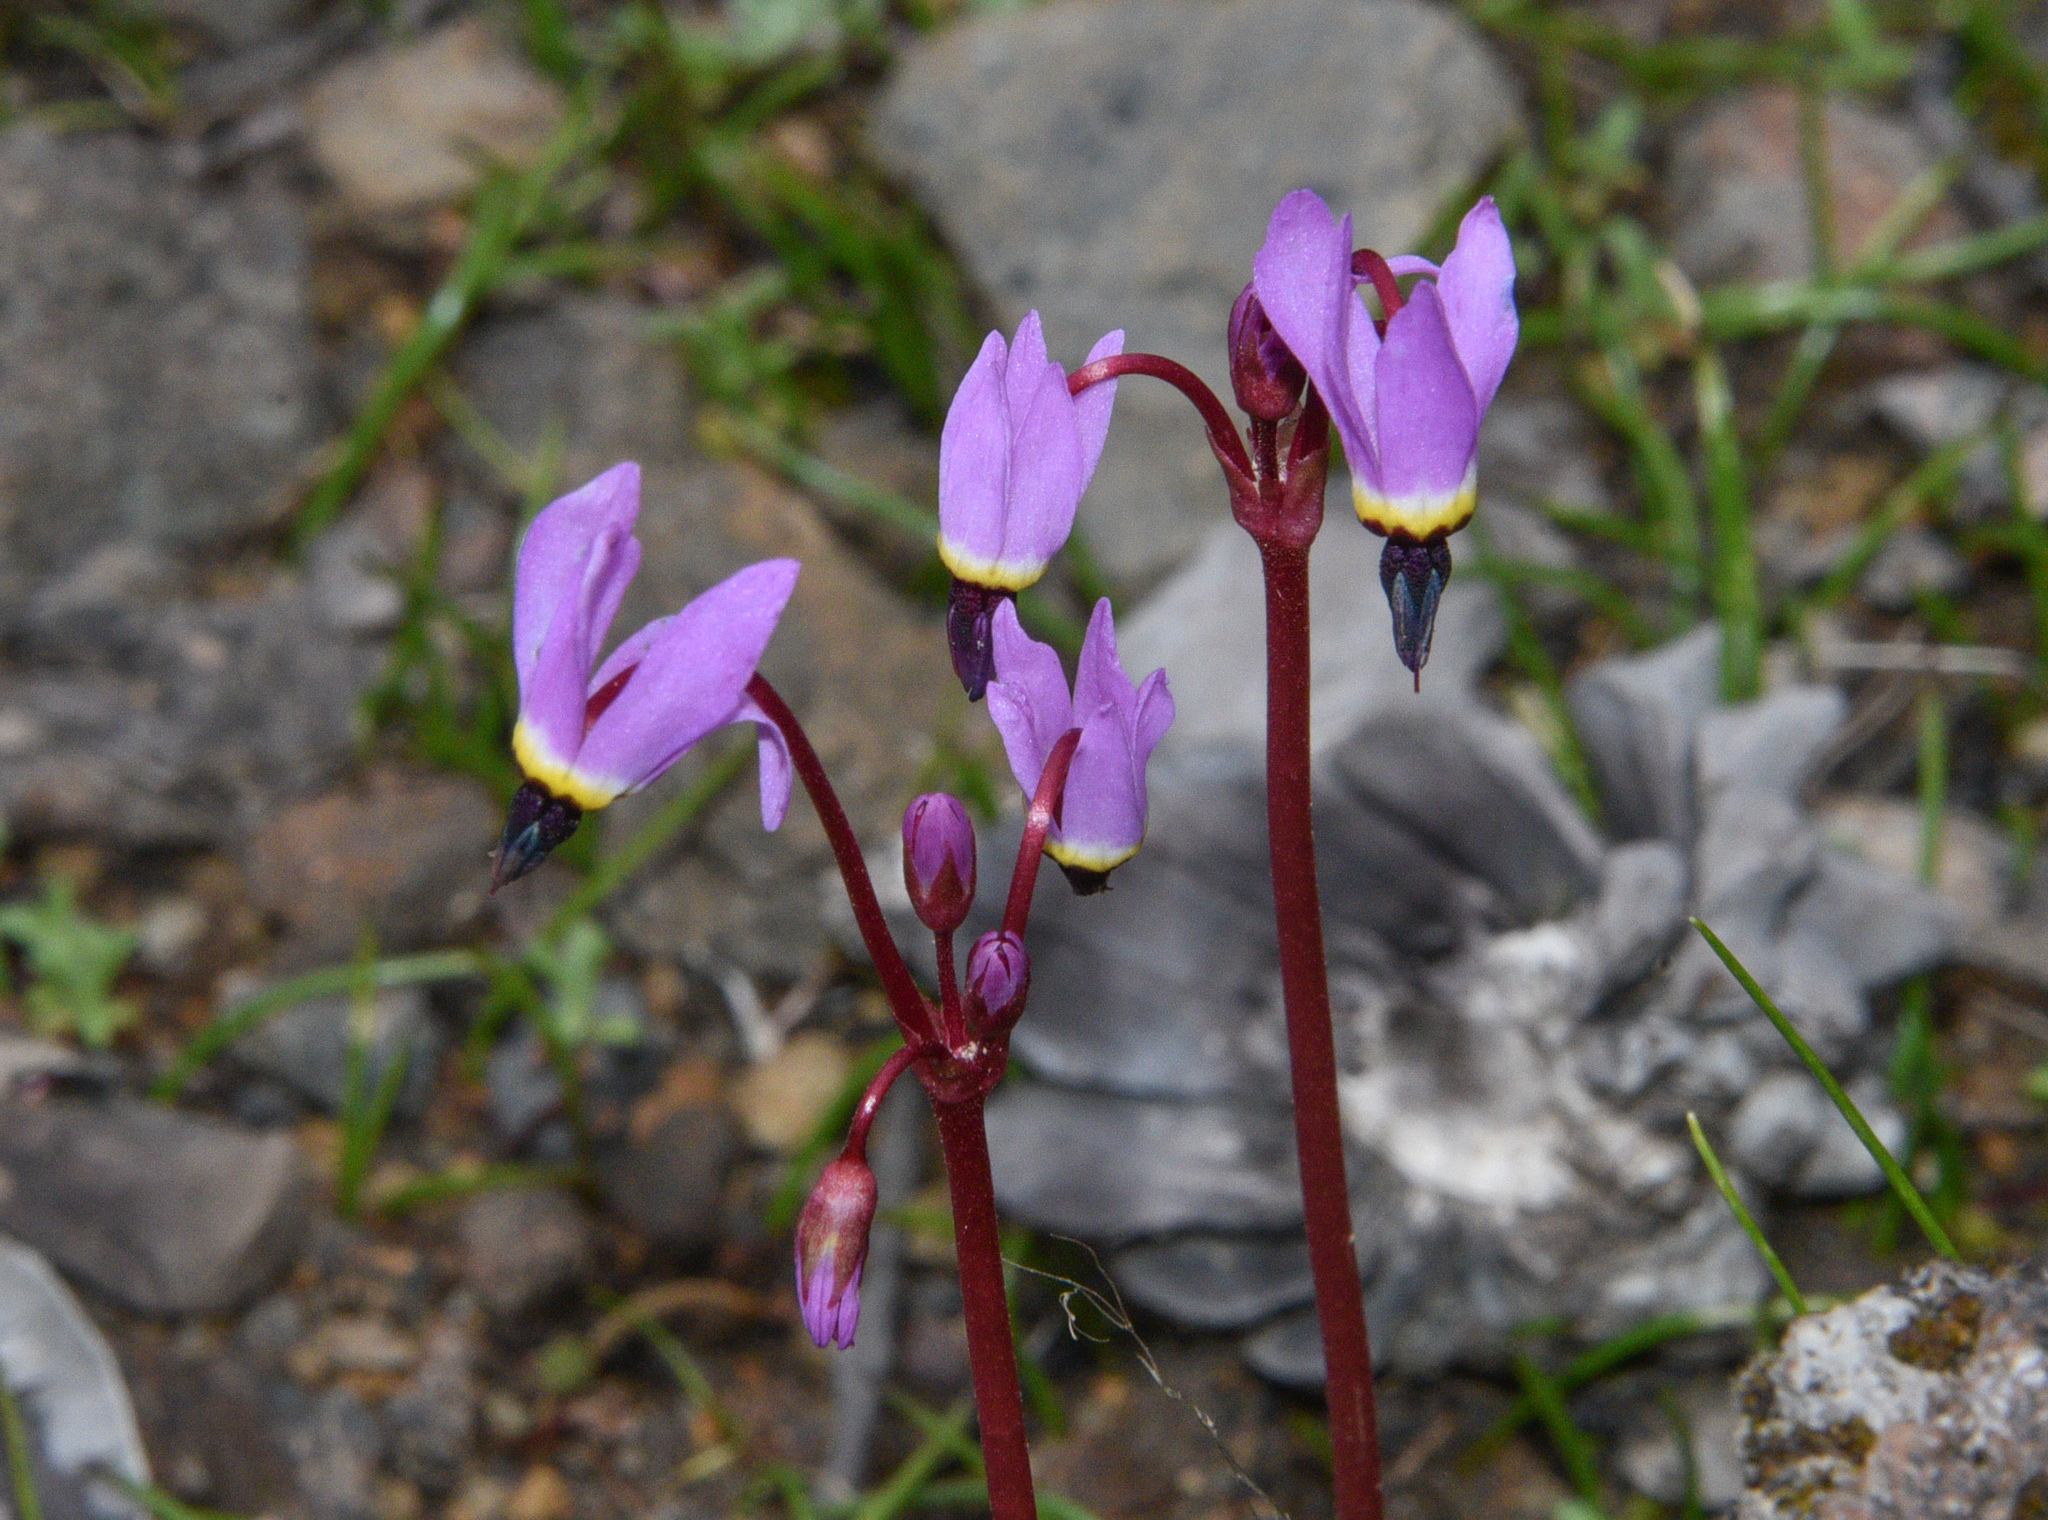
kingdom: Plantae
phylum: Tracheophyta
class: Magnoliopsida
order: Ericales
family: Primulaceae
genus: Dodecatheon
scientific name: Dodecatheon hendersonii
